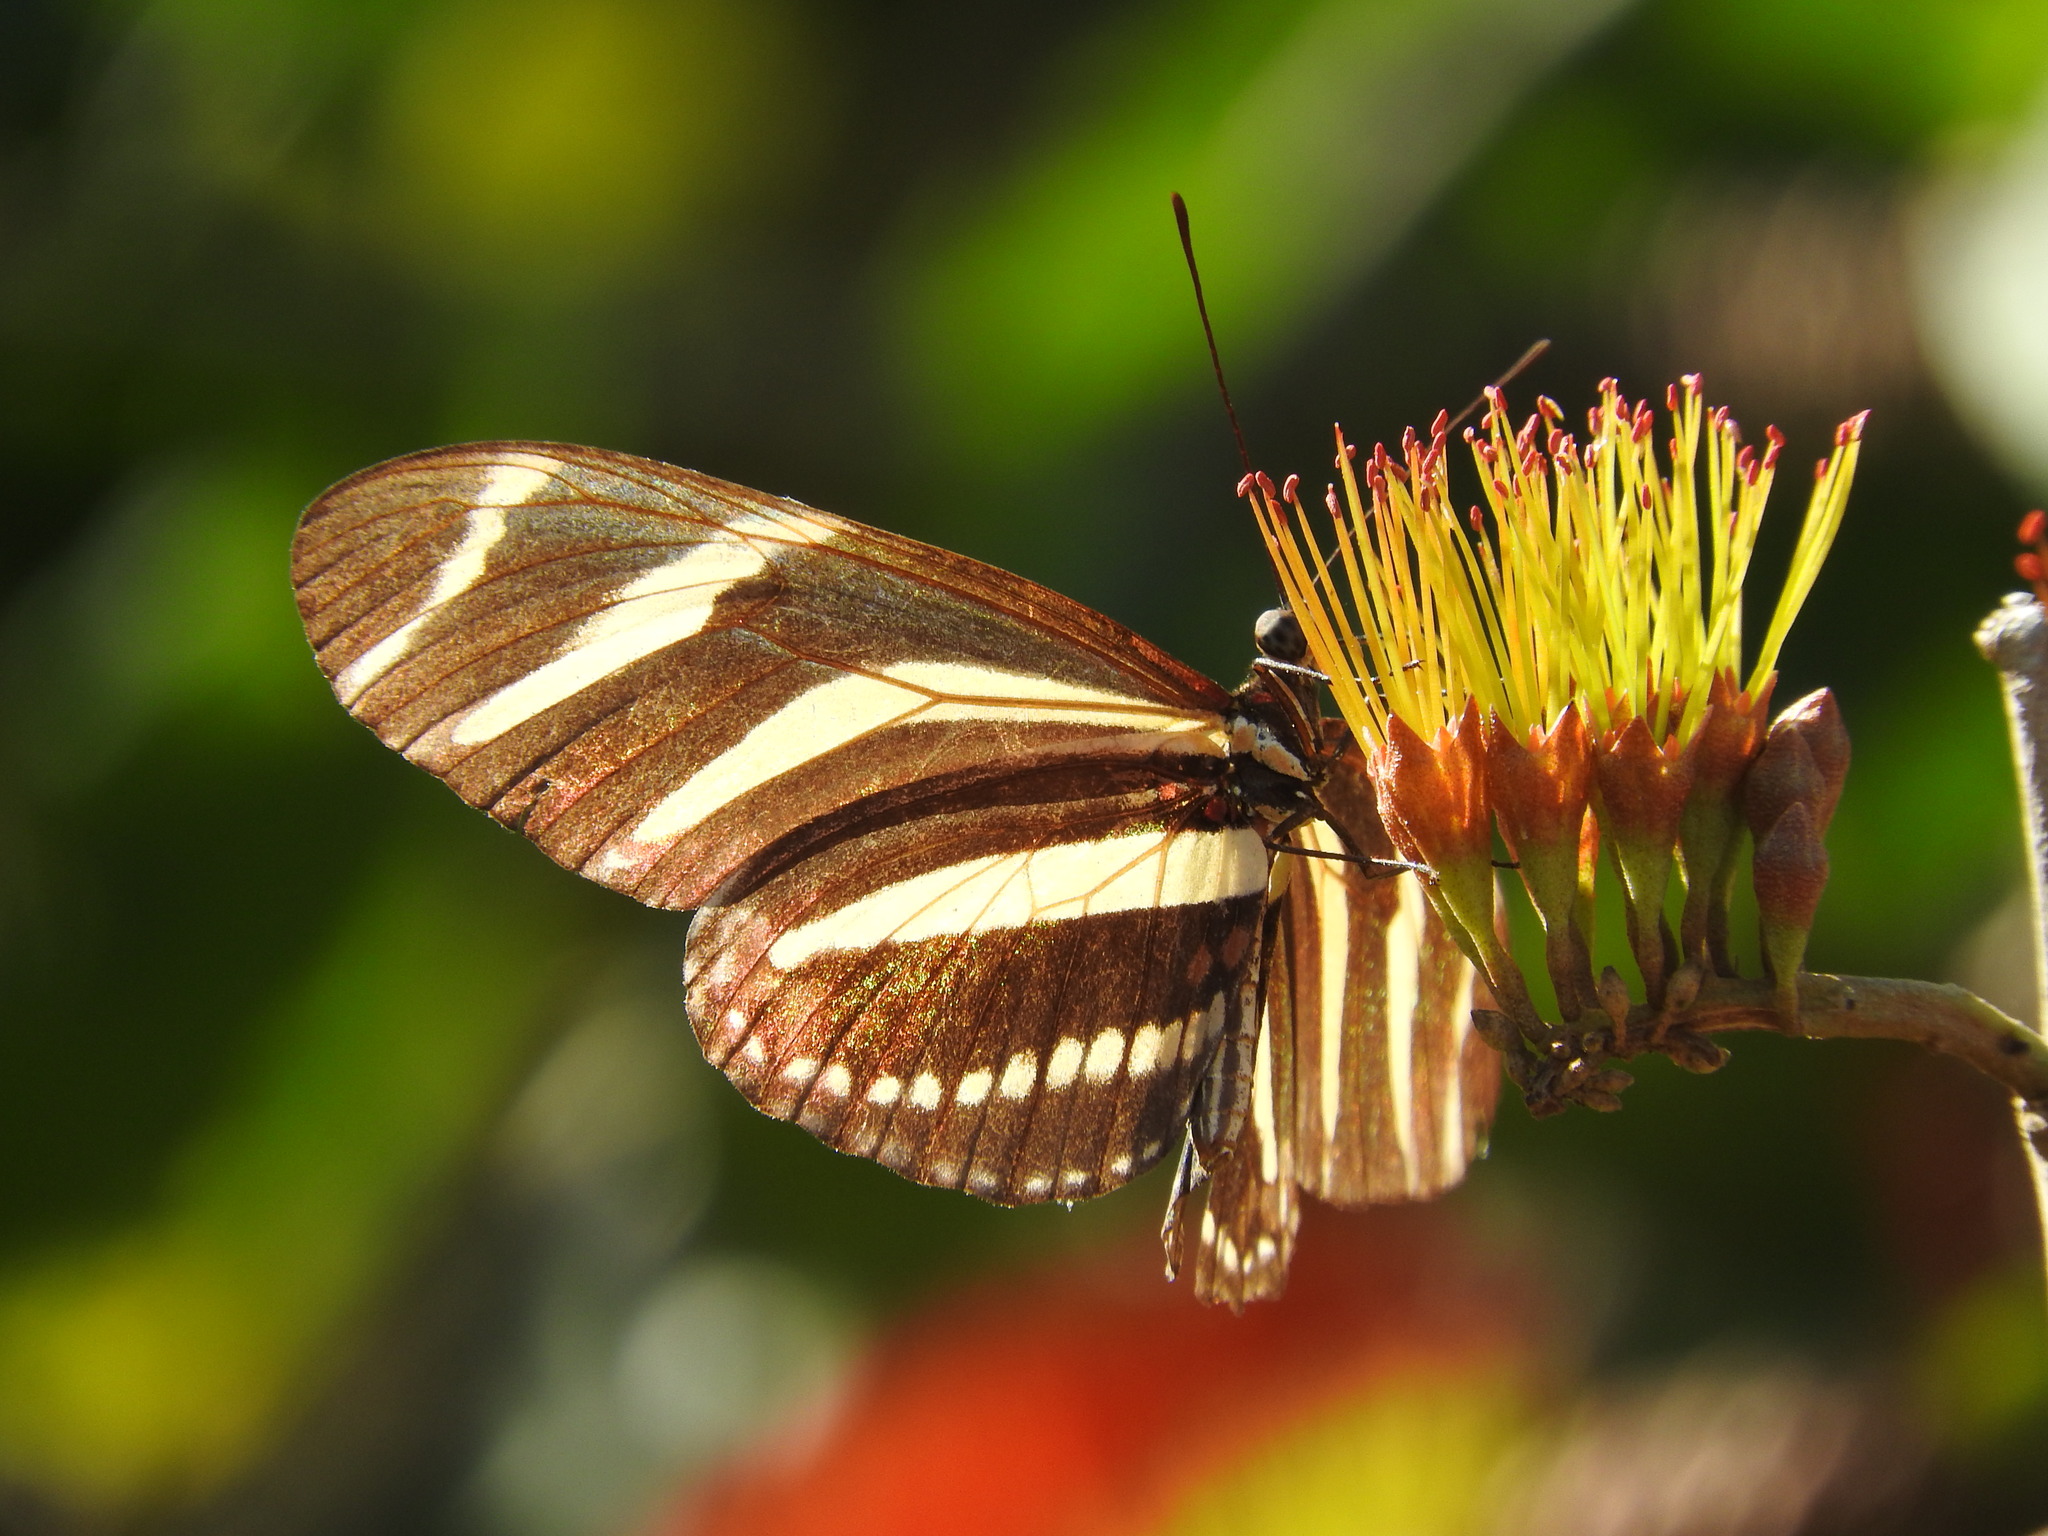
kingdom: Animalia
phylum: Arthropoda
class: Insecta
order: Lepidoptera
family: Nymphalidae
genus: Heliconius
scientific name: Heliconius charithonia
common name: Zebra long wing
